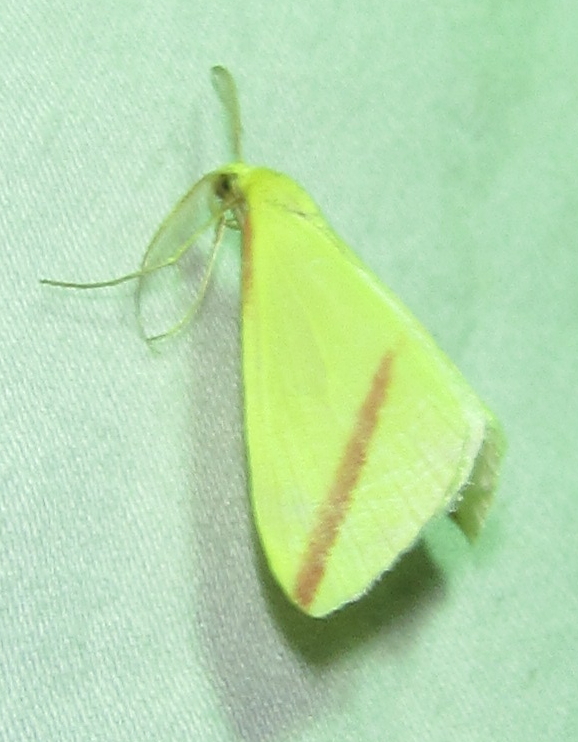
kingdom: Animalia
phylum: Arthropoda
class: Insecta
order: Lepidoptera
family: Geometridae
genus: Rhodometra
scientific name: Rhodometra sacraria
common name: Vestal
